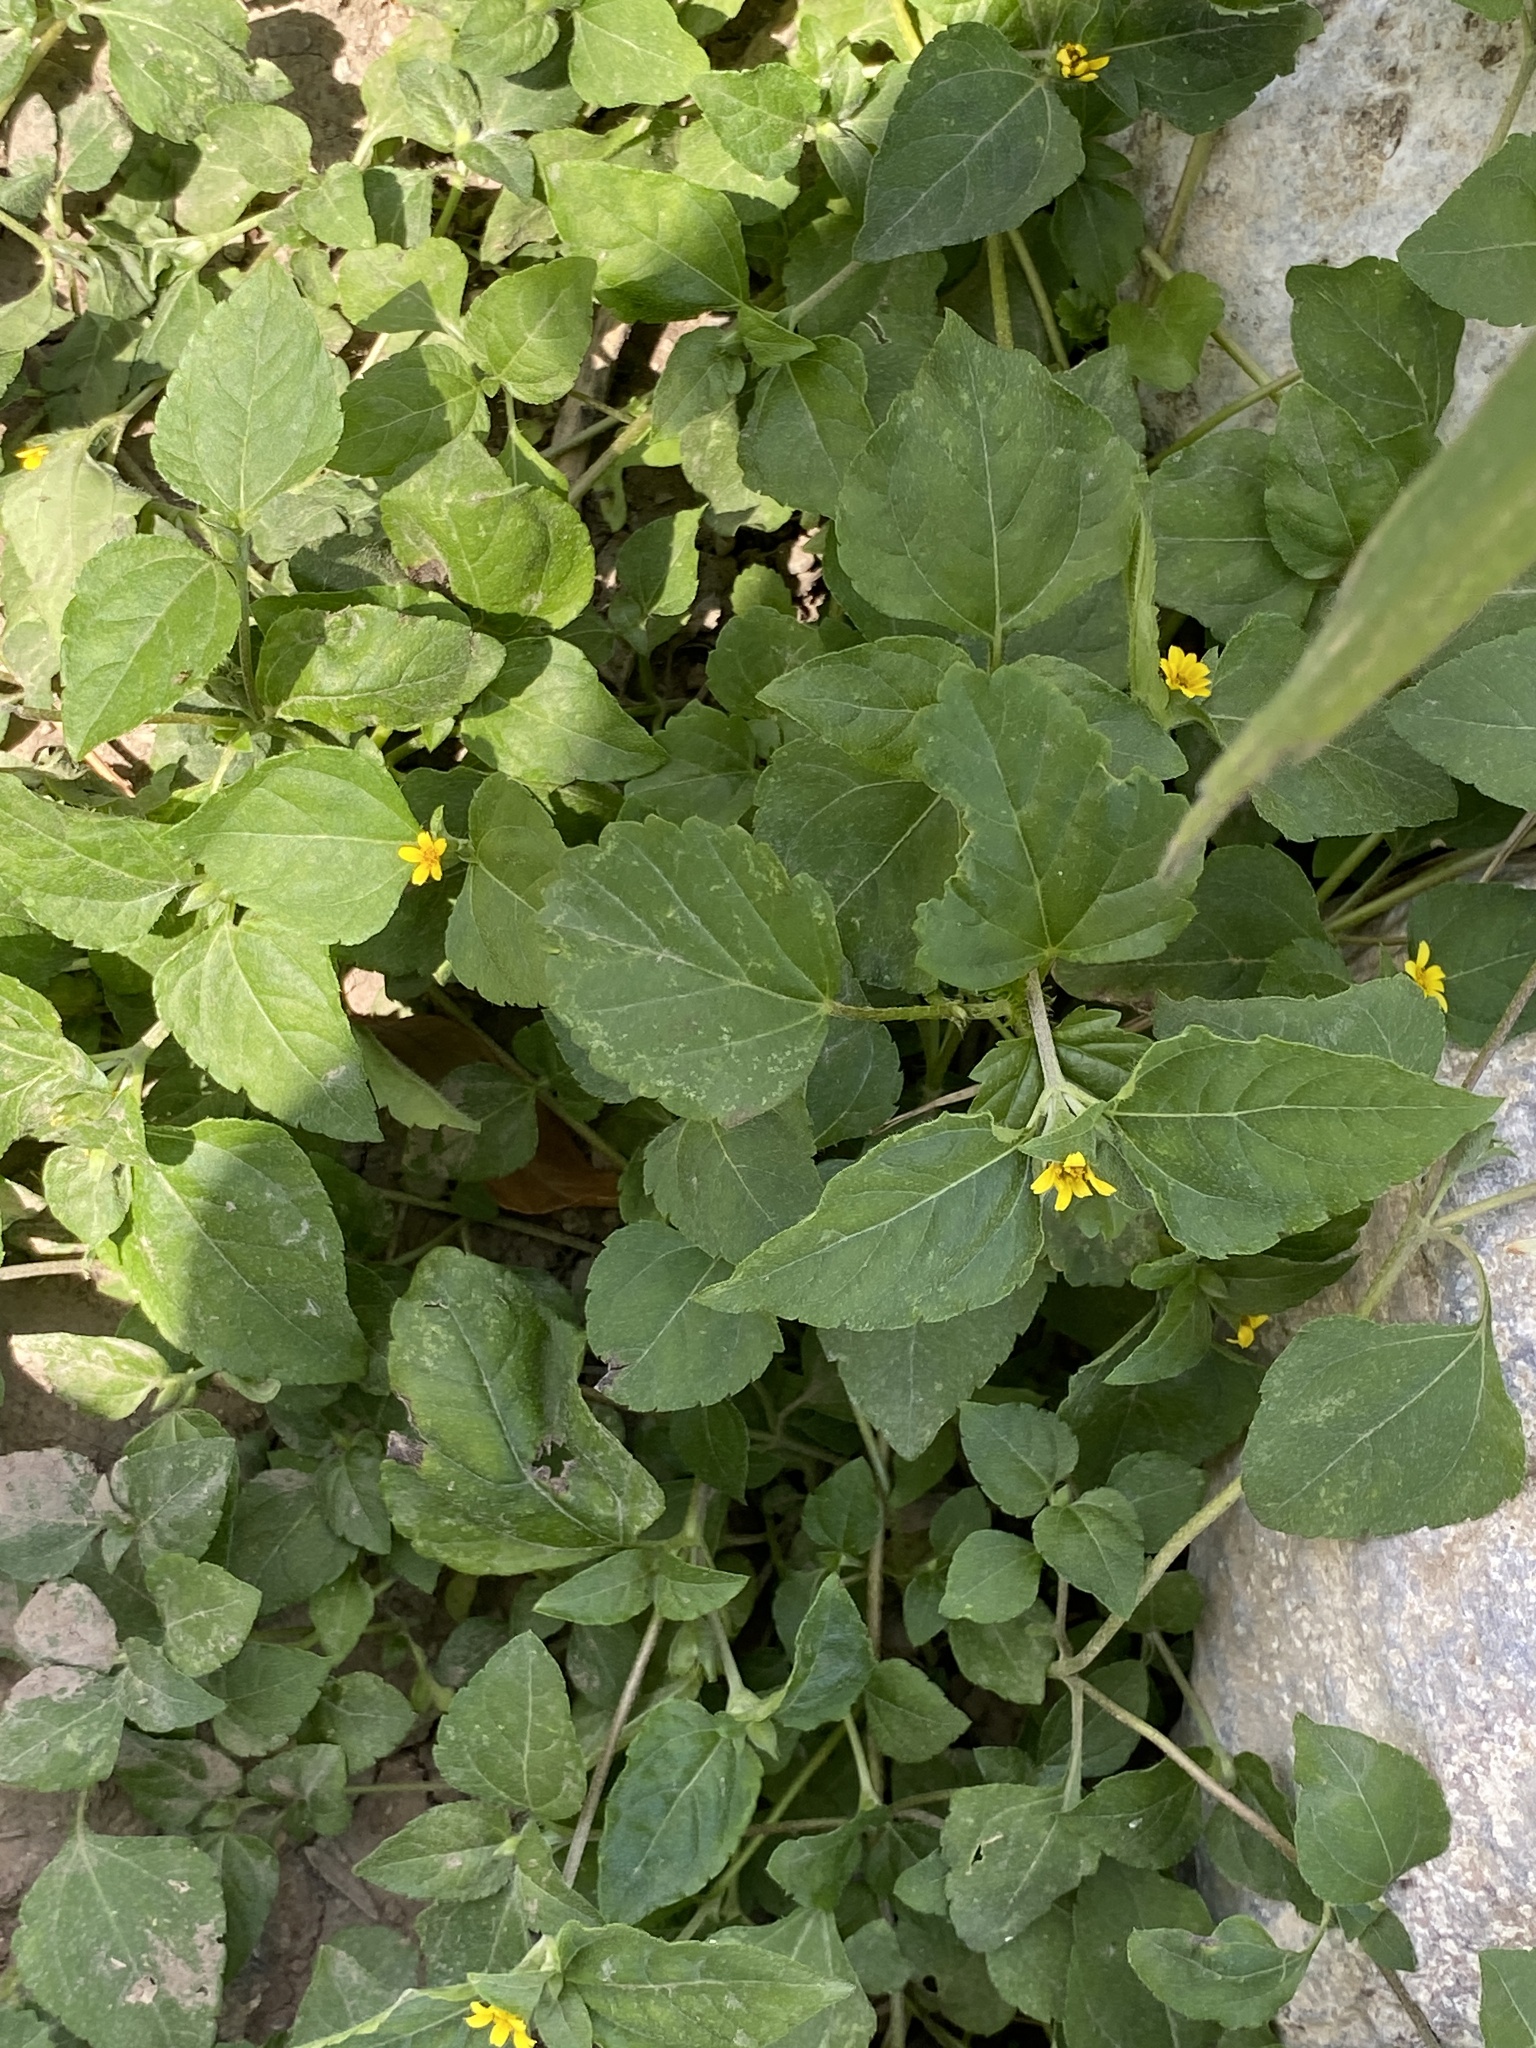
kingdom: Plantae
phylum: Tracheophyta
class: Magnoliopsida
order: Asterales
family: Asteraceae
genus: Calyptocarpus
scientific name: Calyptocarpus vialis
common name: Straggler daisy
